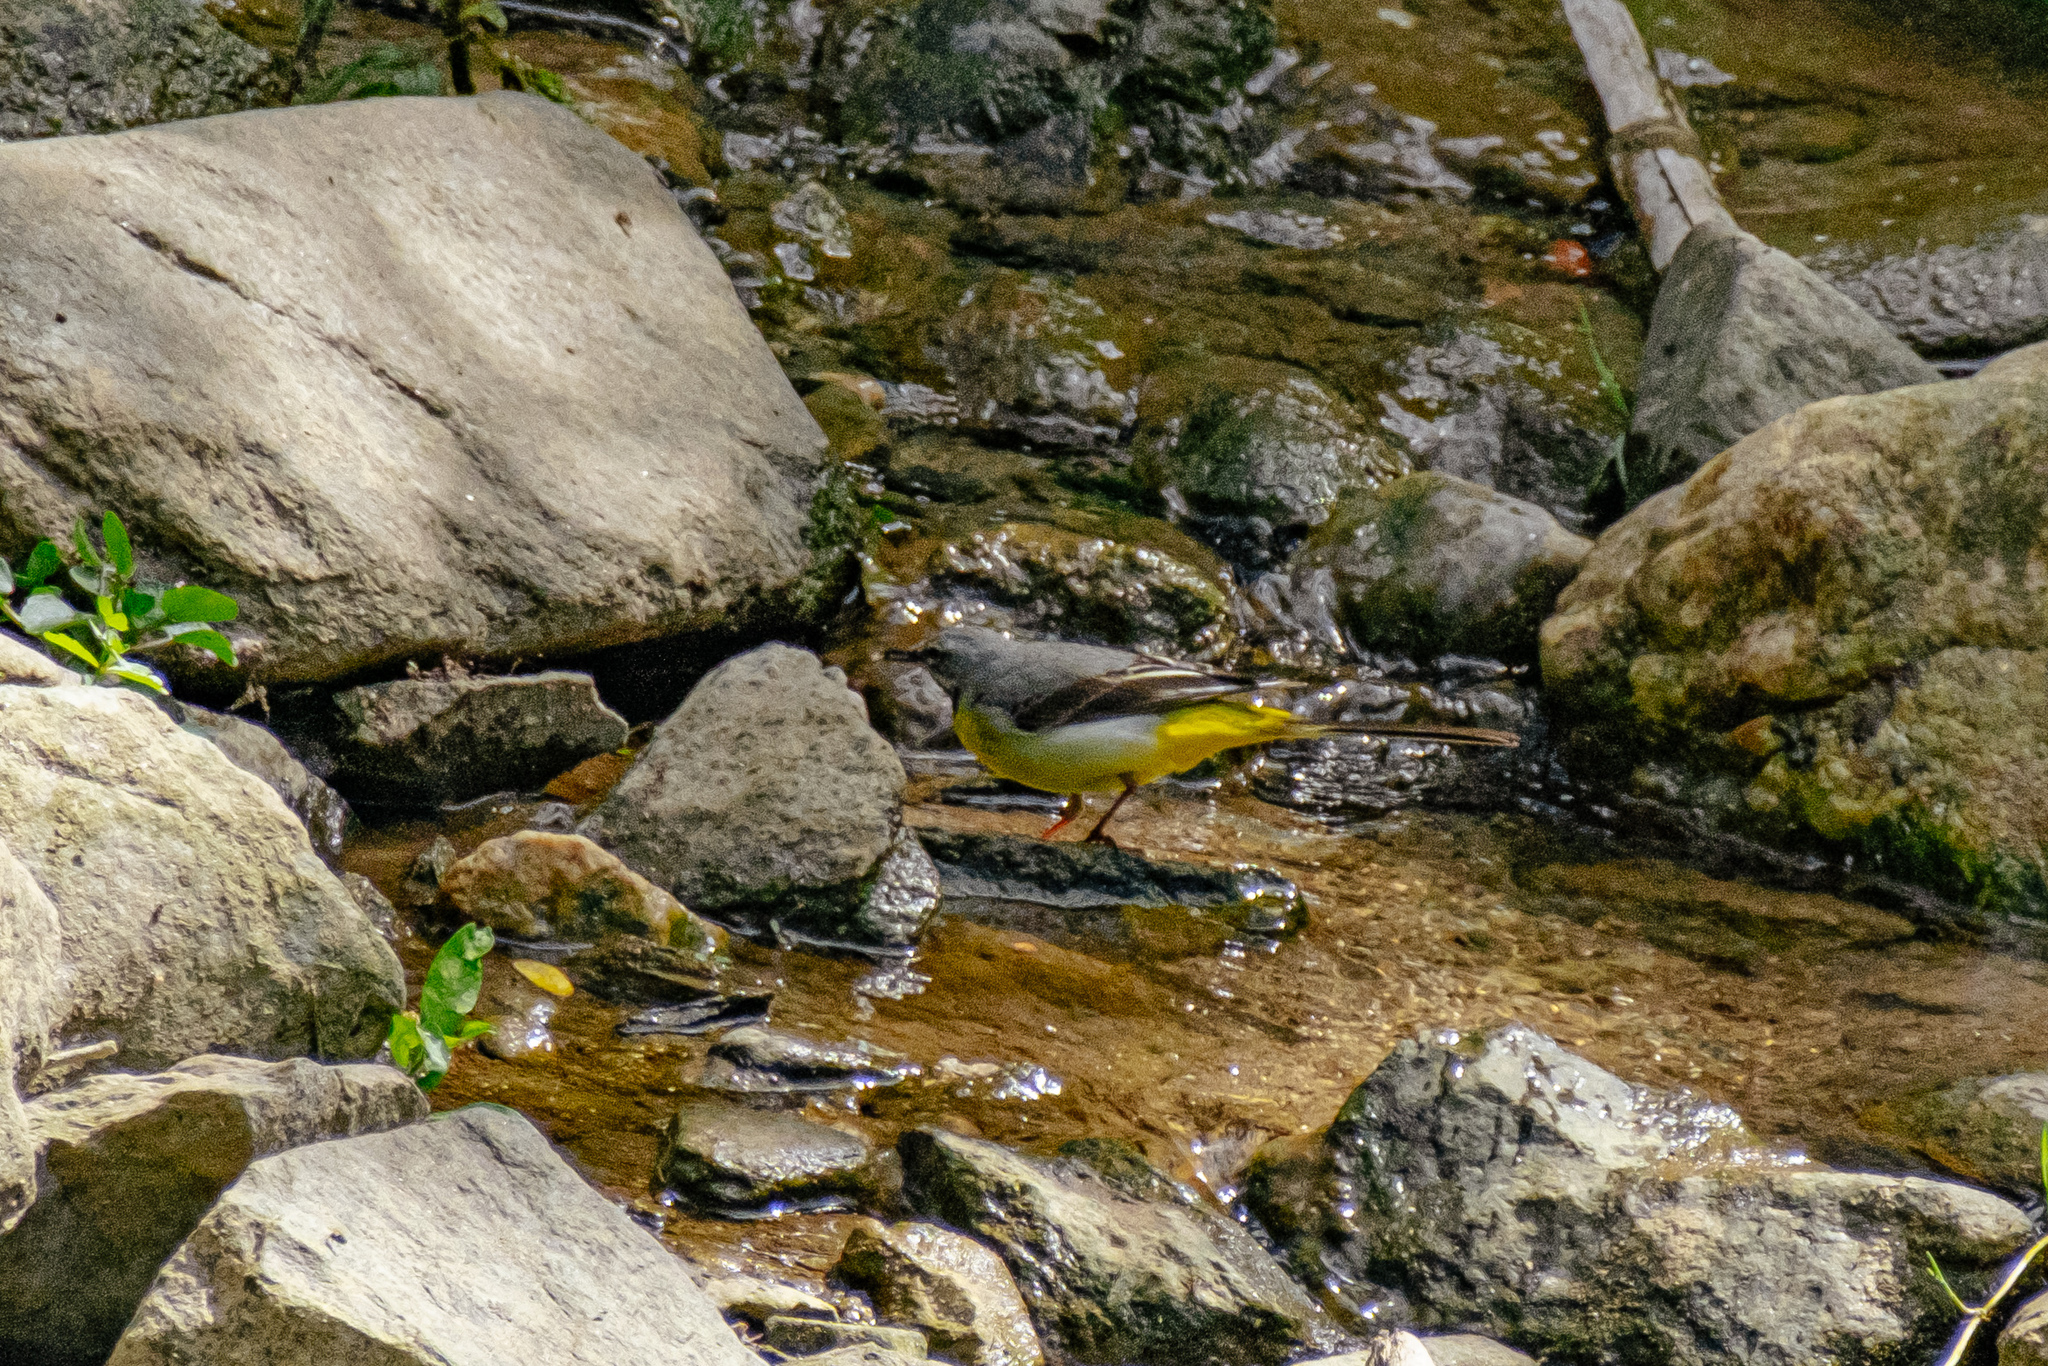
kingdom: Animalia
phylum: Chordata
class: Aves
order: Passeriformes
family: Motacillidae
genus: Motacilla
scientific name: Motacilla cinerea
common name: Grey wagtail
